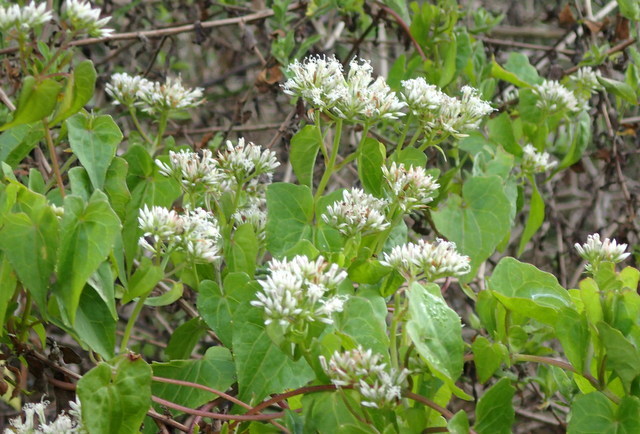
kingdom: Plantae
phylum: Tracheophyta
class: Magnoliopsida
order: Asterales
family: Asteraceae
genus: Mikania
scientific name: Mikania scandens
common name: Climbing hempvine
